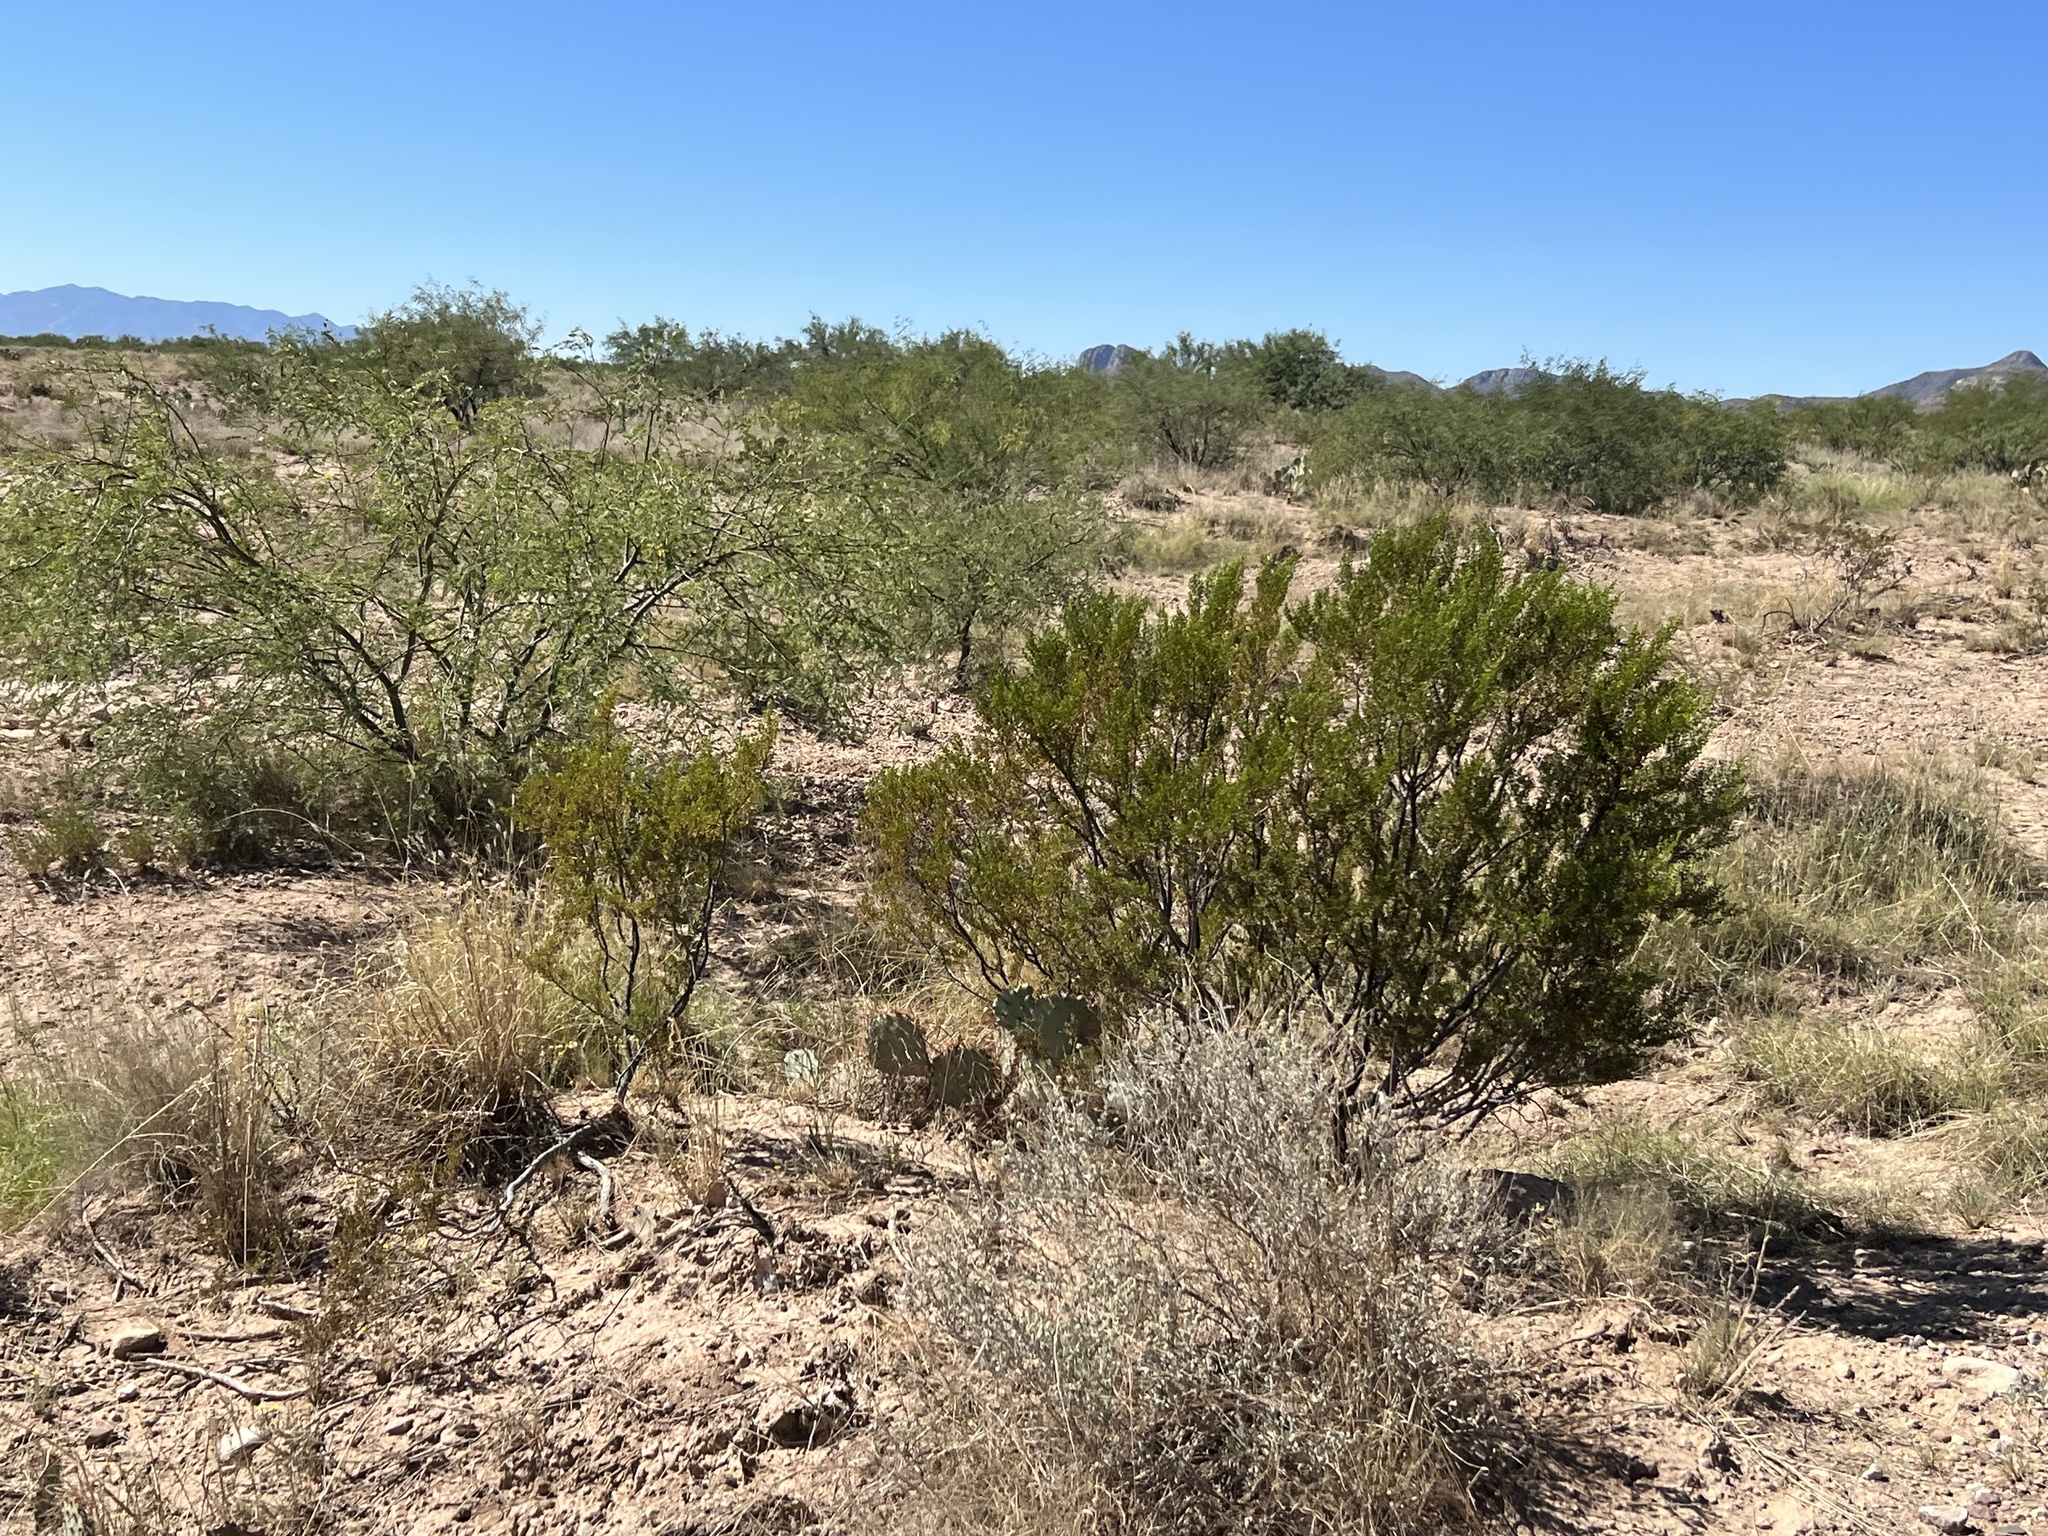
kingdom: Plantae
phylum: Tracheophyta
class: Magnoliopsida
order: Zygophyllales
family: Zygophyllaceae
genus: Larrea
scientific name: Larrea tridentata
